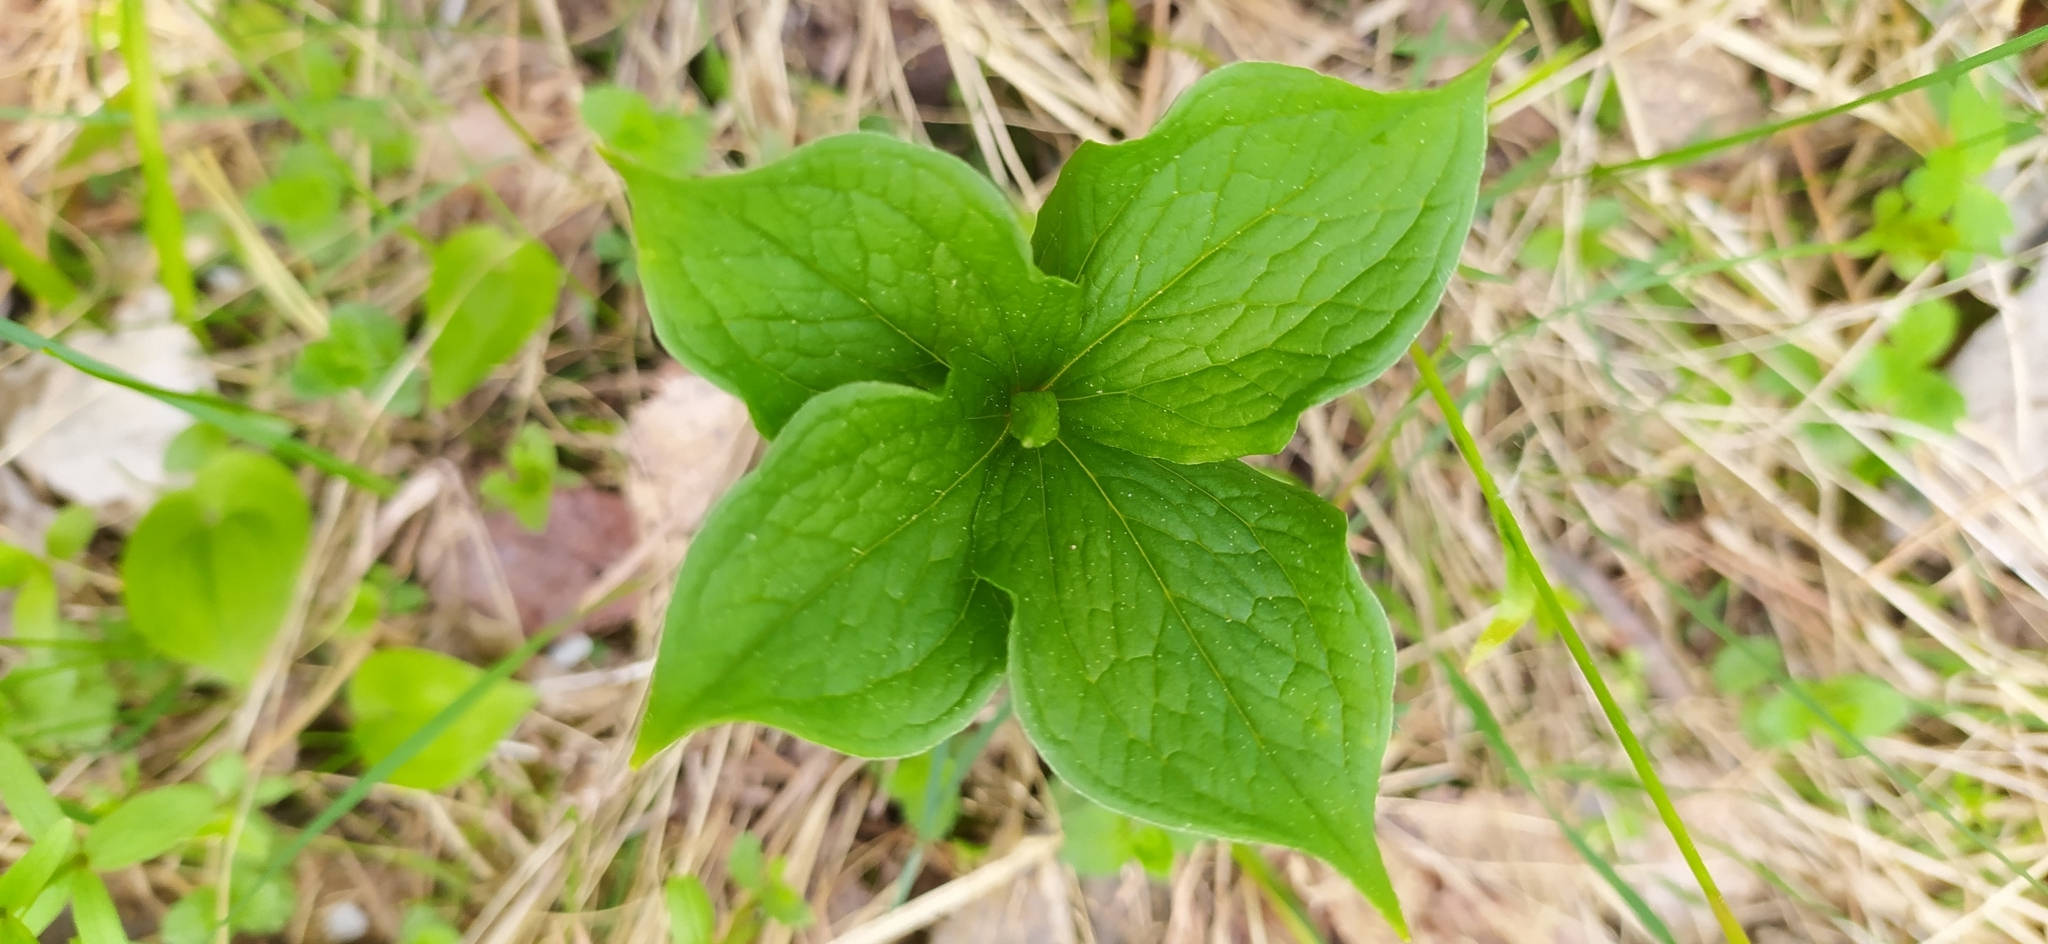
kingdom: Plantae
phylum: Tracheophyta
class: Liliopsida
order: Liliales
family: Melanthiaceae
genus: Paris
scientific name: Paris quadrifolia
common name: Herb-paris
